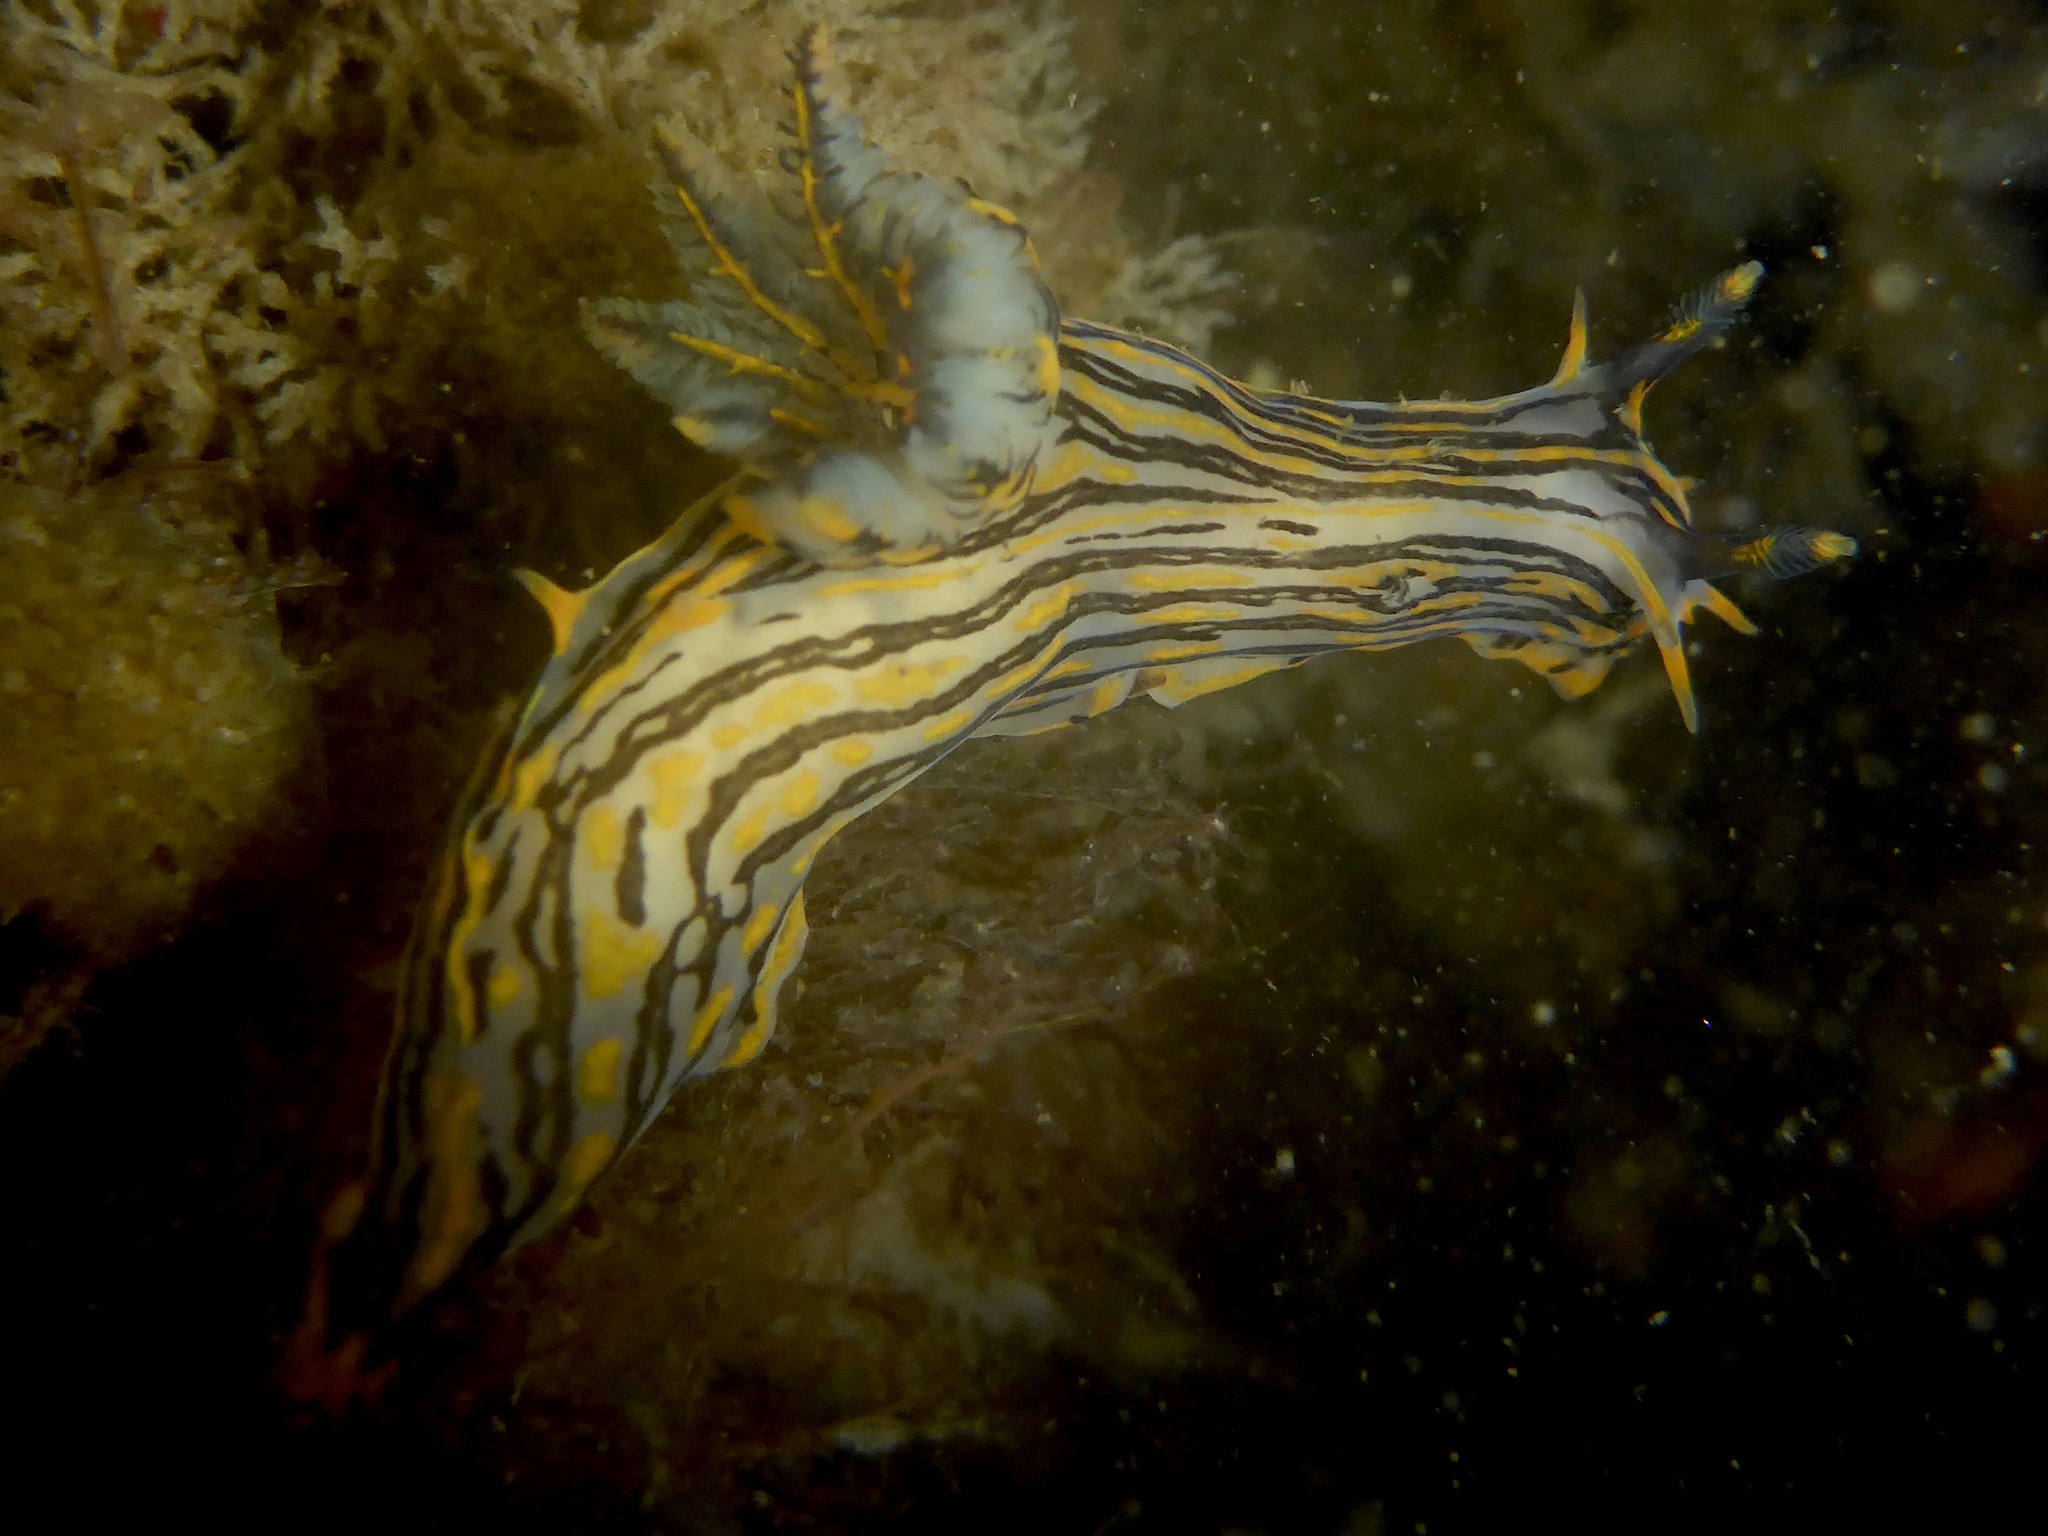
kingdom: Animalia
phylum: Mollusca
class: Gastropoda
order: Nudibranchia
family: Polyceridae
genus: Polycera
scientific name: Polycera atra
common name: Orange-spike polycera
